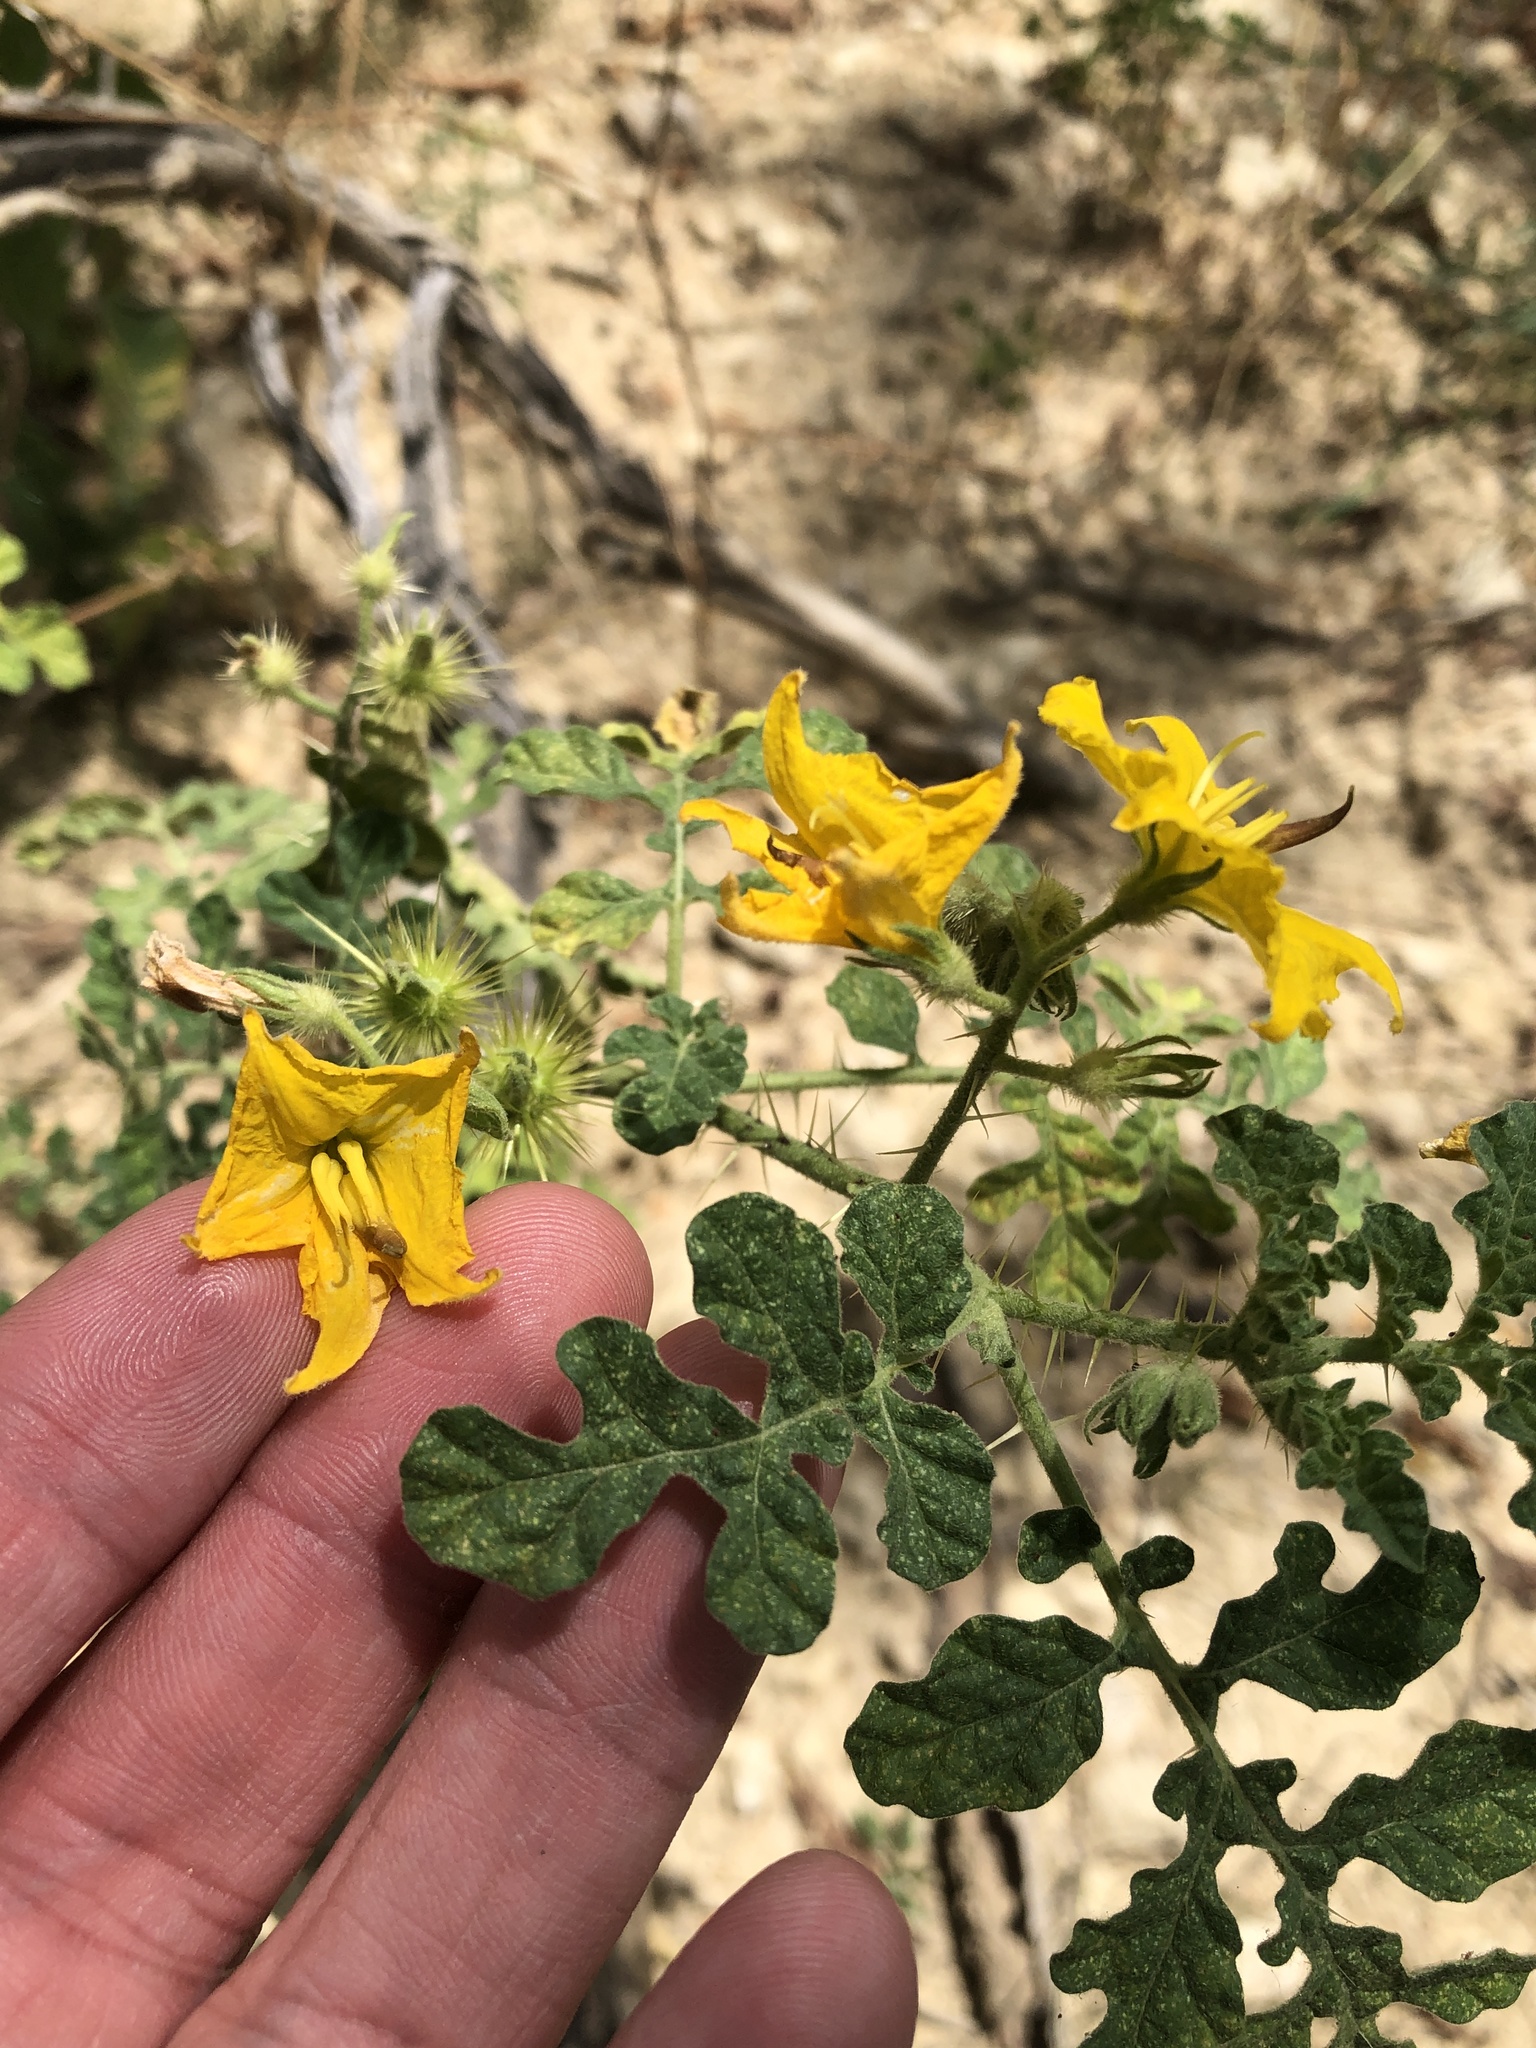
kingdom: Plantae
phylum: Tracheophyta
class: Magnoliopsida
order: Solanales
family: Solanaceae
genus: Solanum
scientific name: Solanum angustifolium
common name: Buffalobur nightshade
